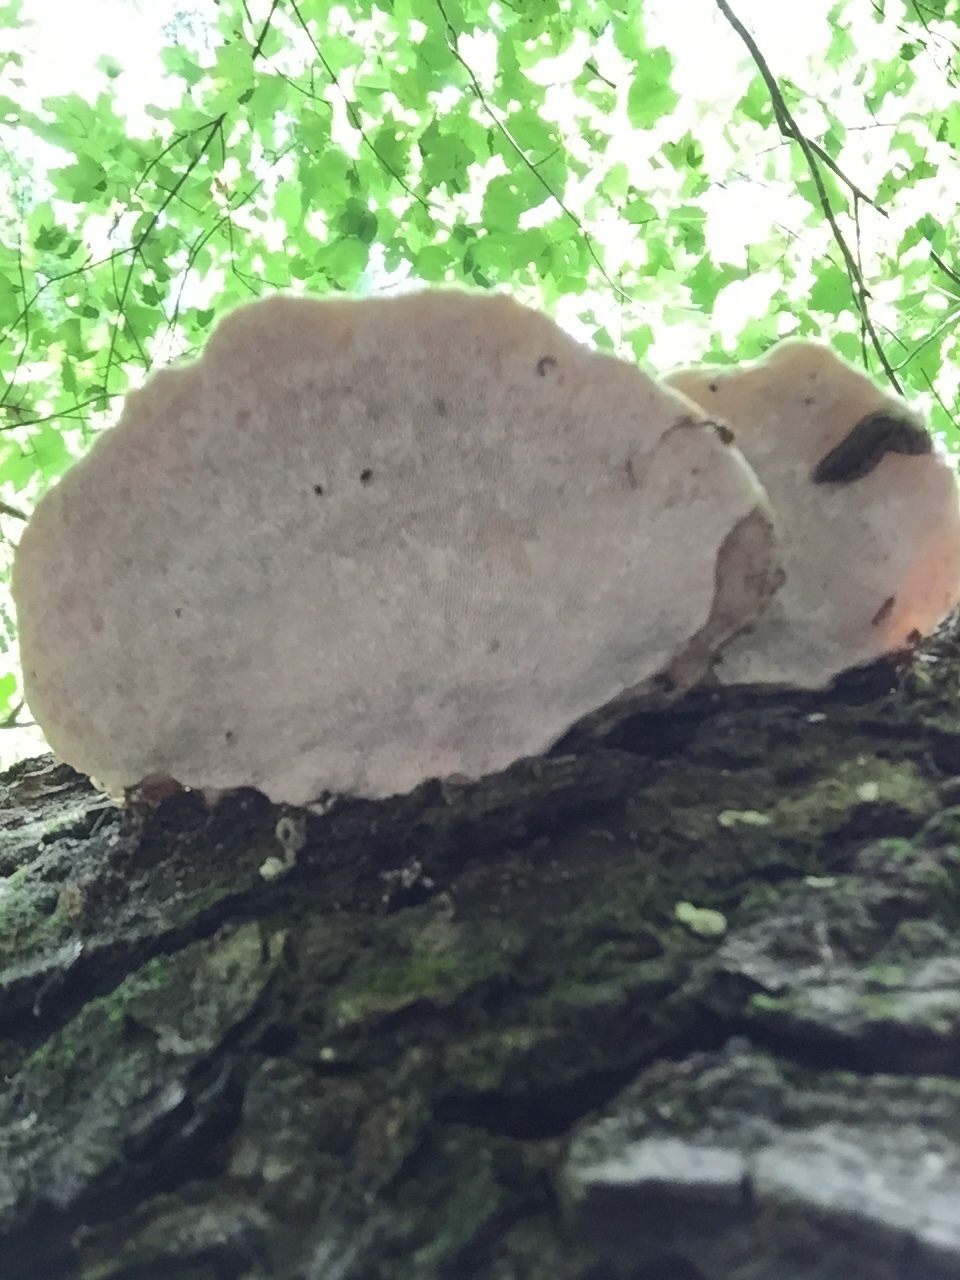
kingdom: Fungi
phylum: Basidiomycota
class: Agaricomycetes
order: Polyporales
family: Polyporaceae
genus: Trametes
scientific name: Trametes gibbosa
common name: Lumpy bracket
